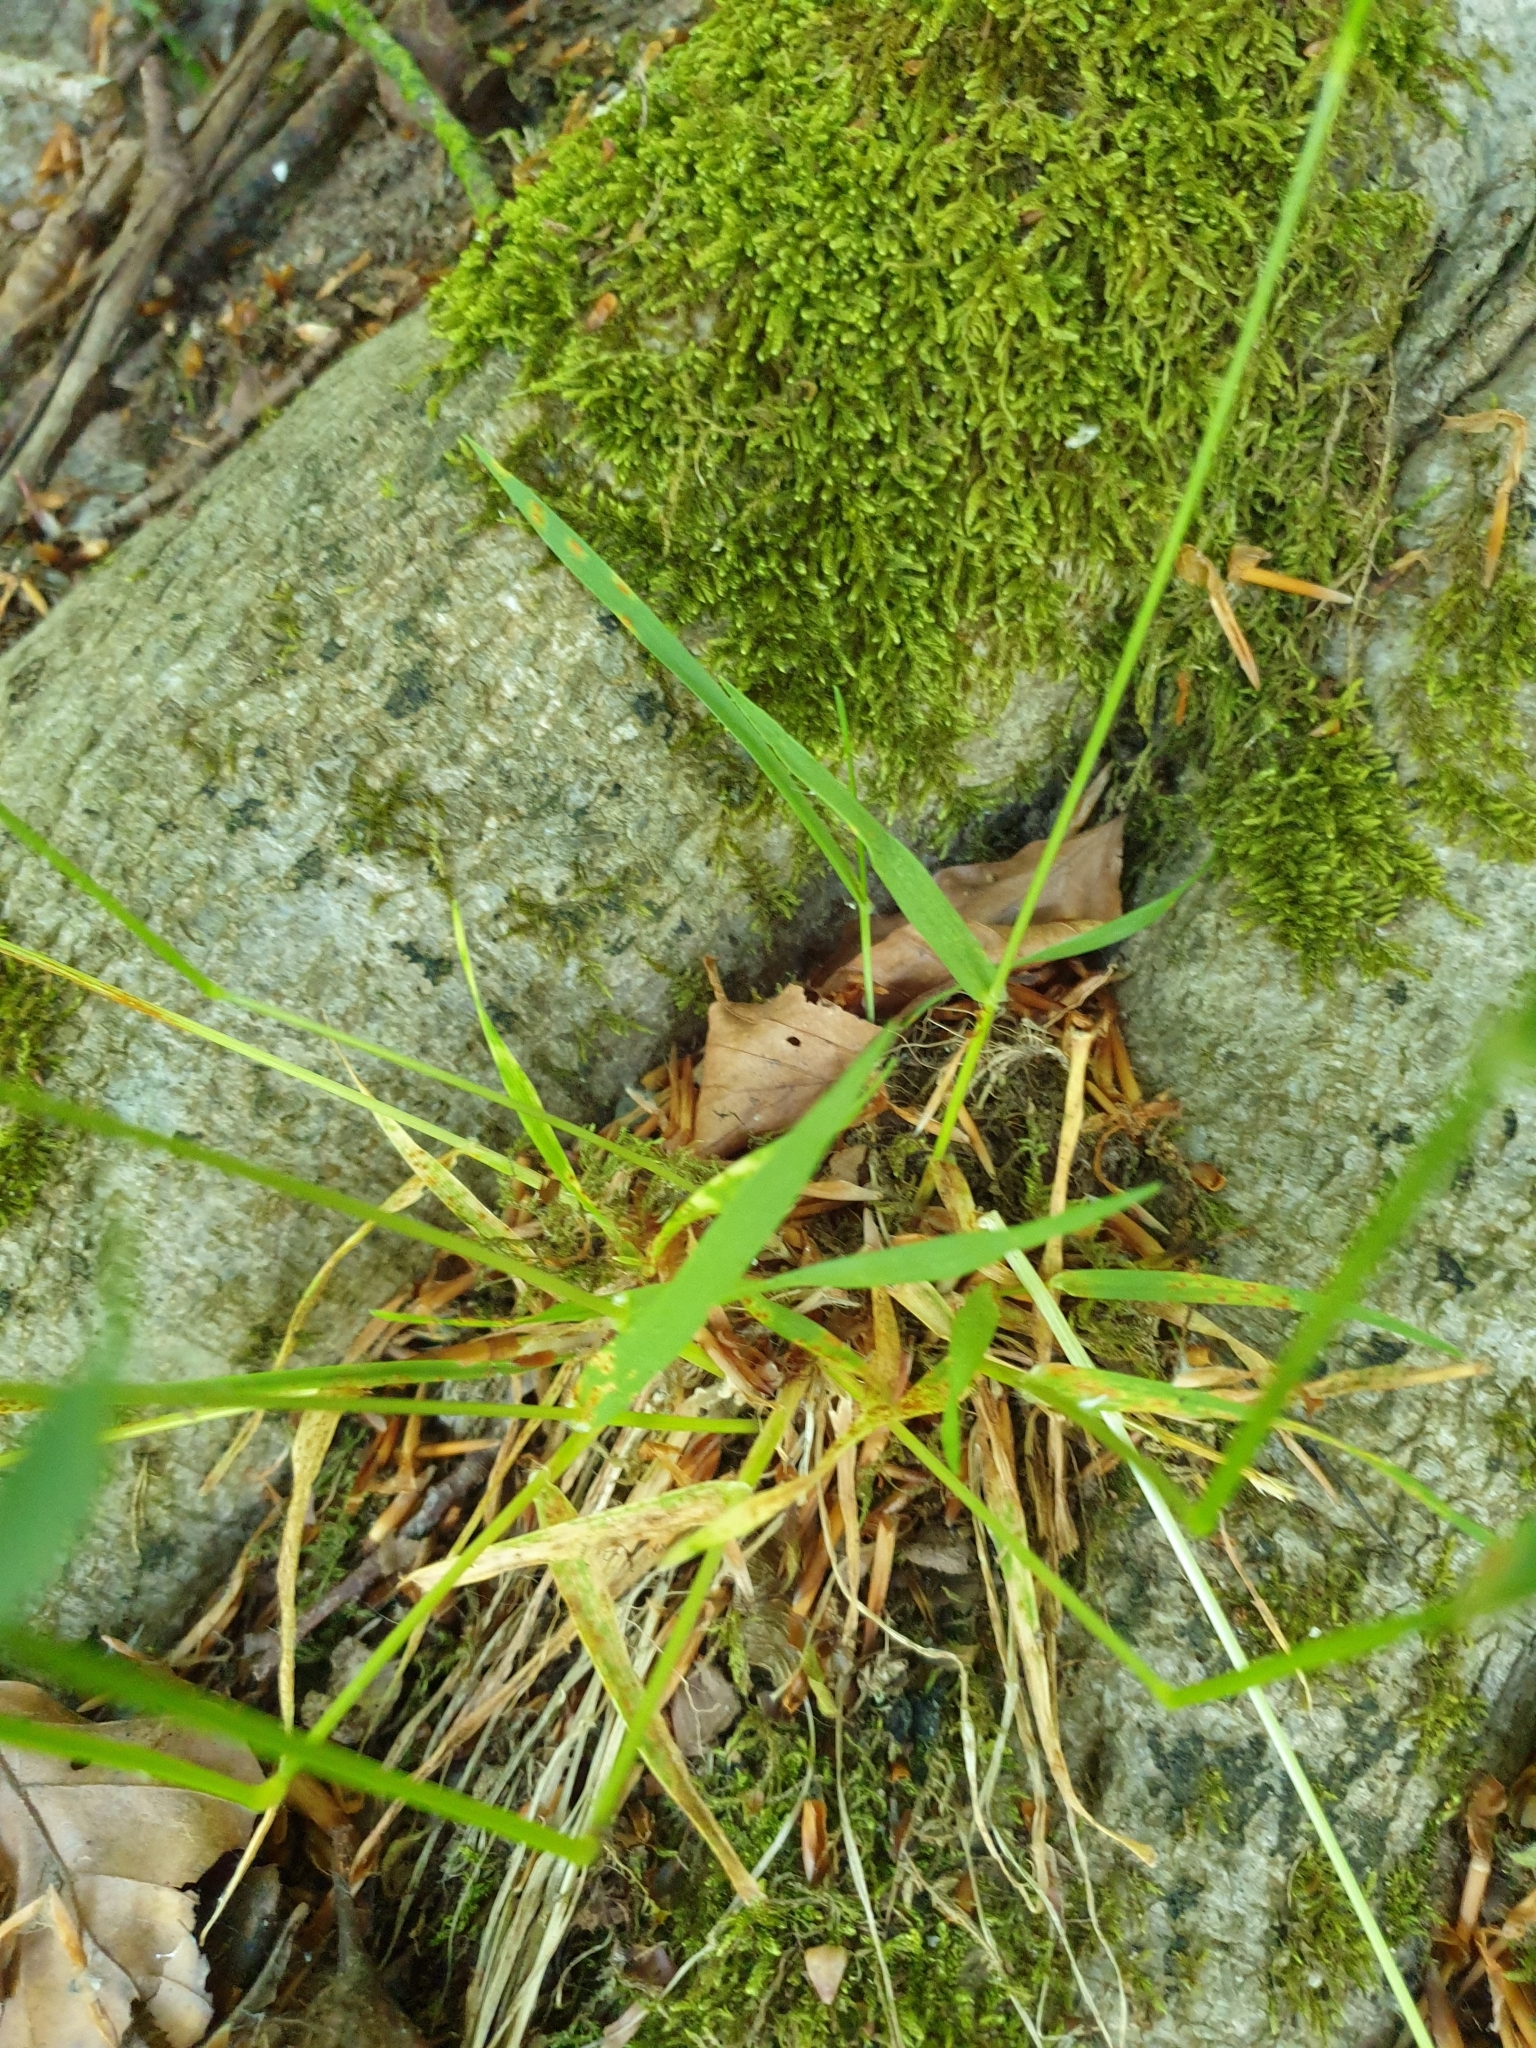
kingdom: Plantae
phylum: Tracheophyta
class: Liliopsida
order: Poales
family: Poaceae
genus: Anthoxanthum
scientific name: Anthoxanthum odoratum
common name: Sweet vernalgrass
